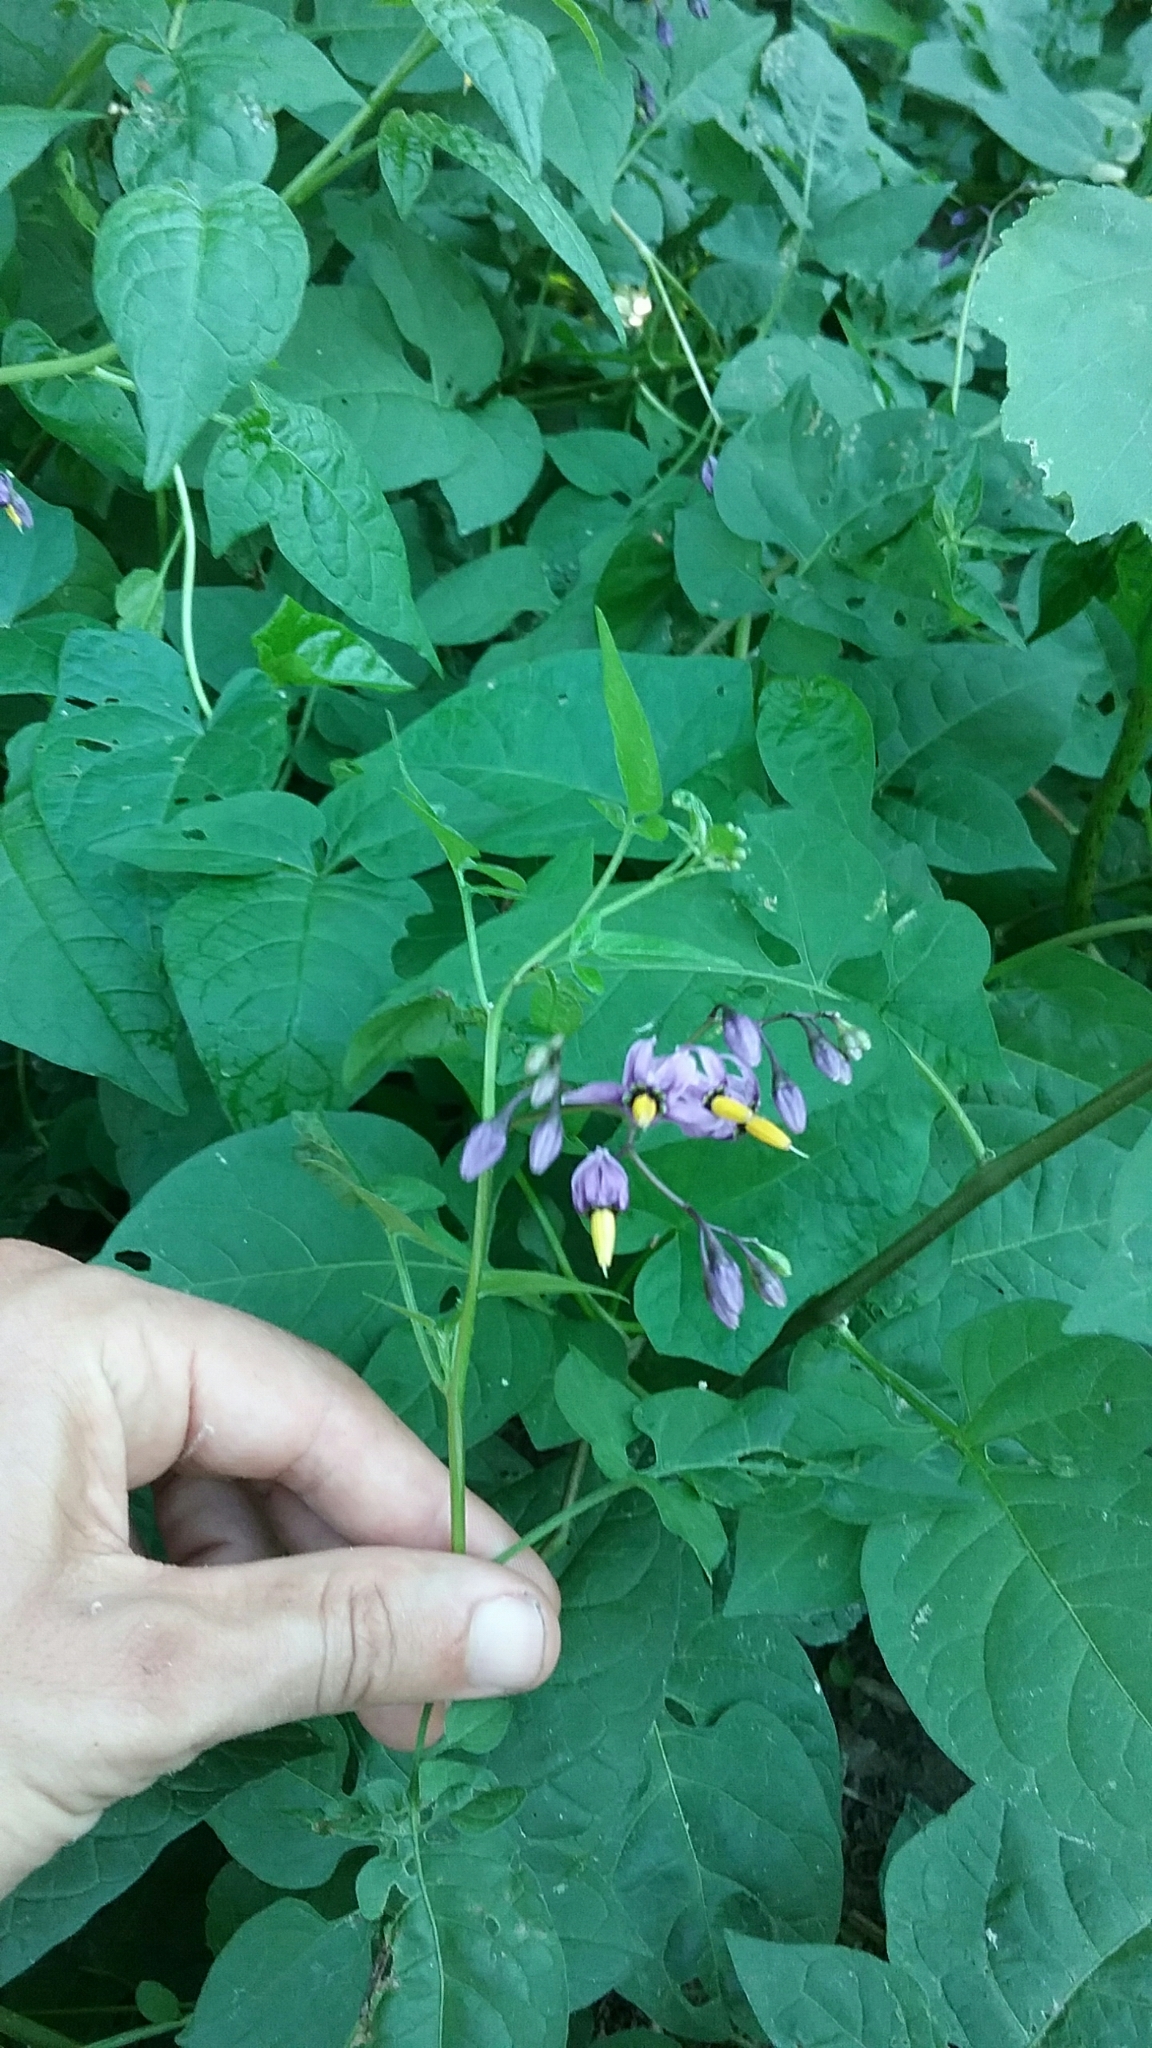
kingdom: Plantae
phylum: Tracheophyta
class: Magnoliopsida
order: Solanales
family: Solanaceae
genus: Solanum
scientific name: Solanum dulcamara
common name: Climbing nightshade
